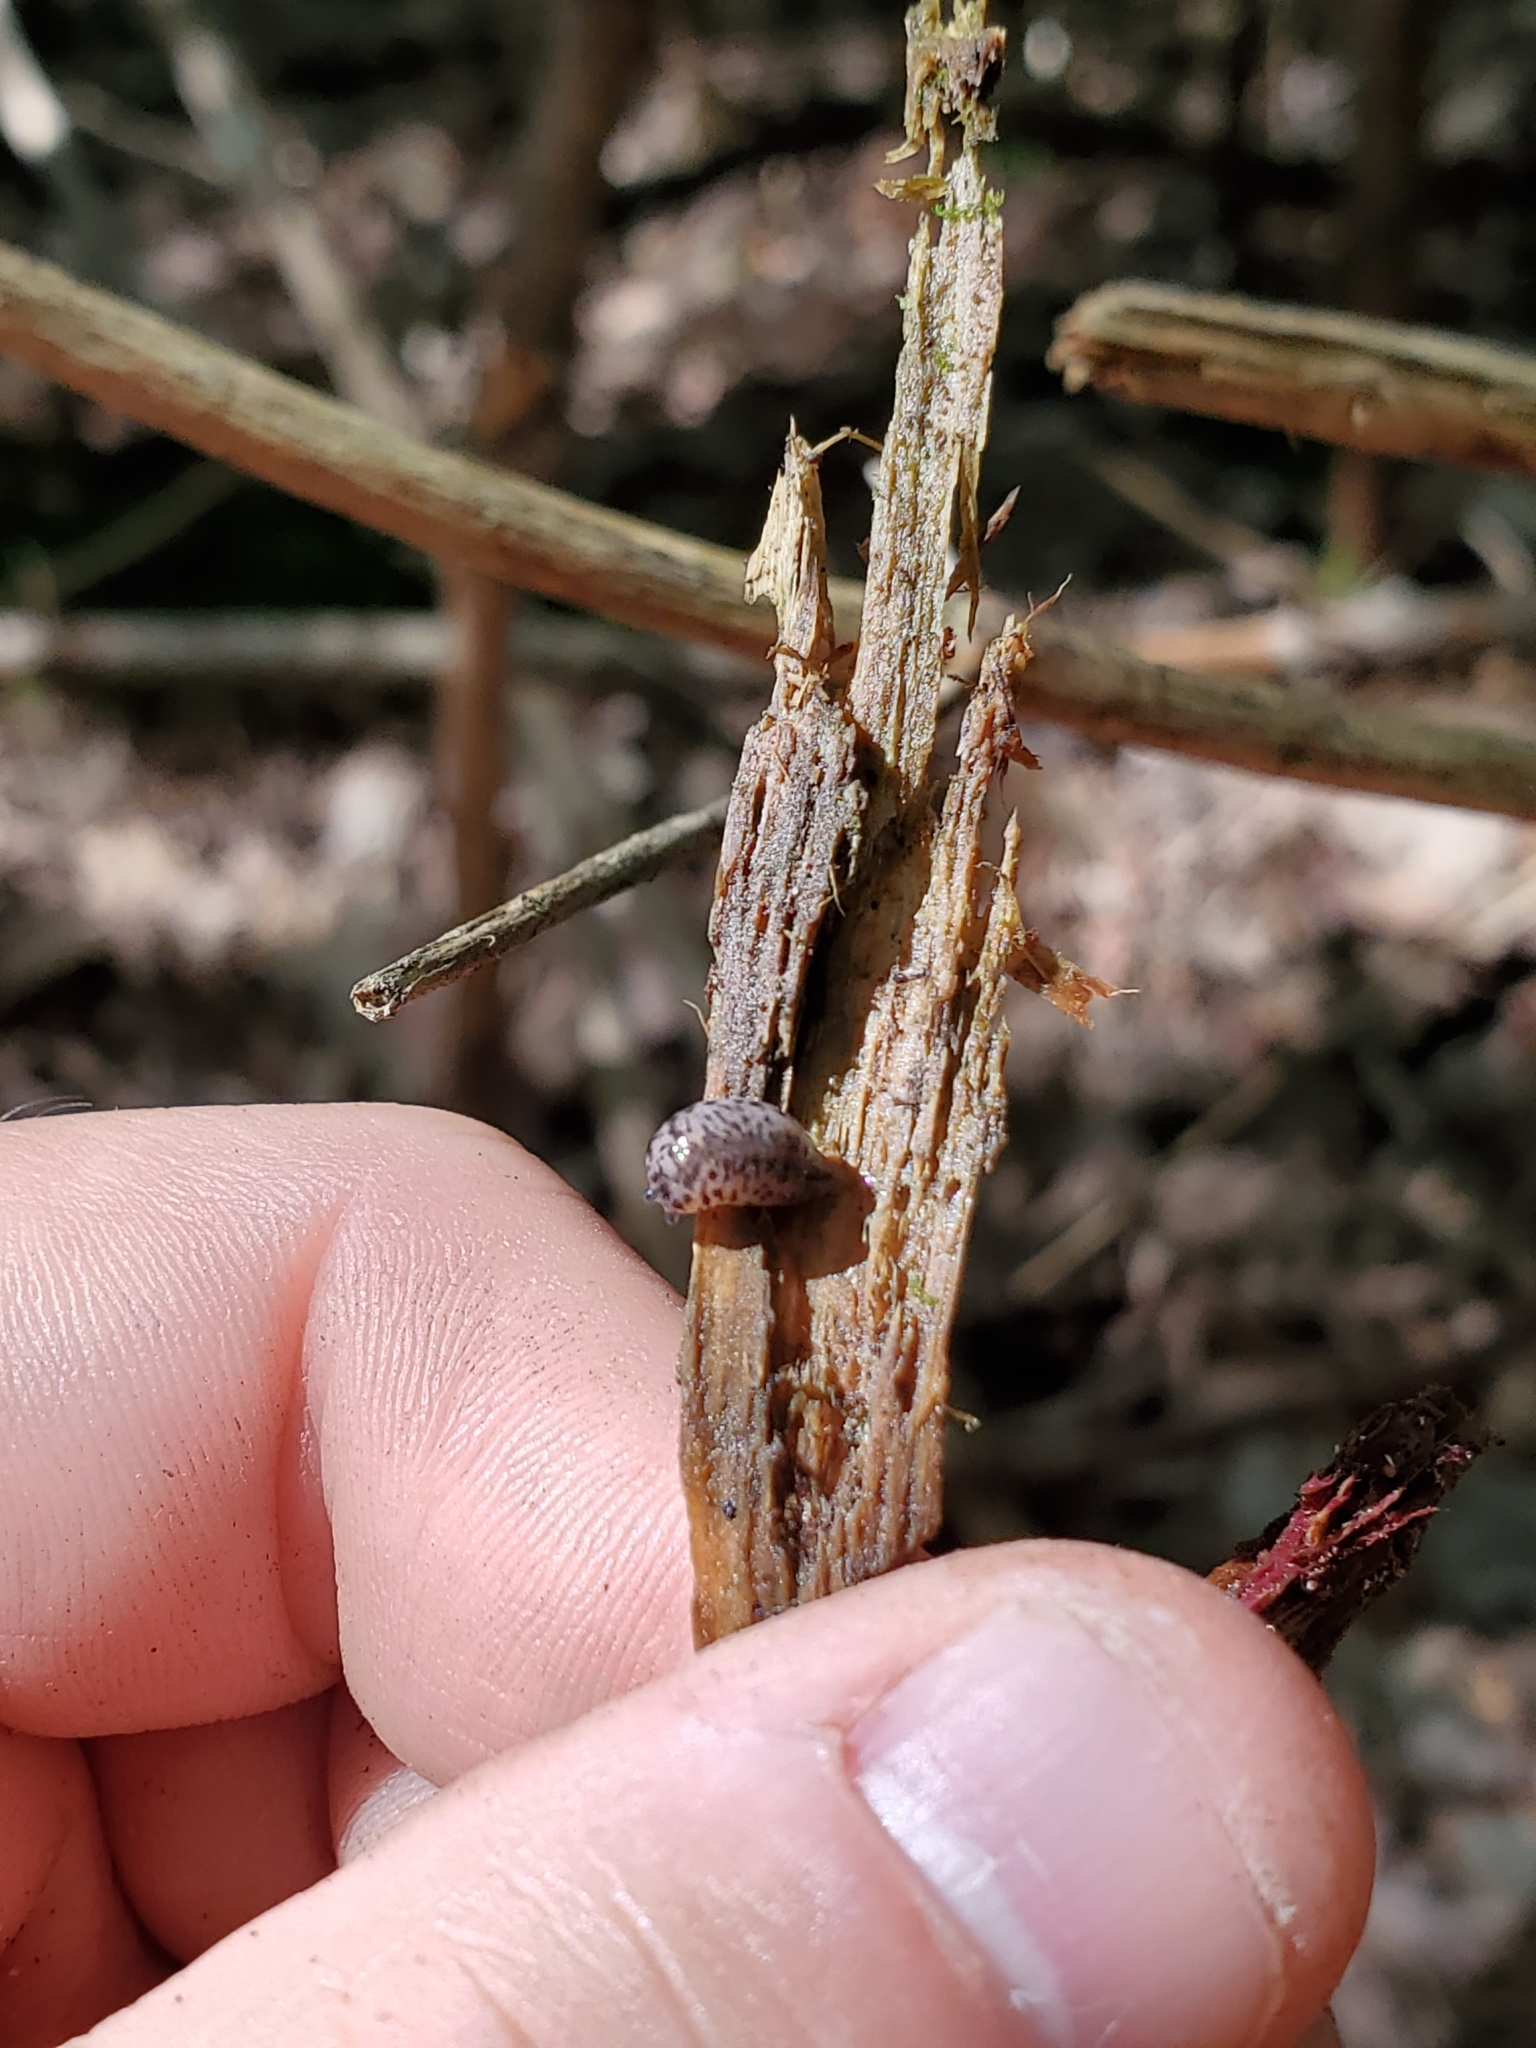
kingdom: Animalia
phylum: Mollusca
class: Gastropoda
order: Stylommatophora
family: Philomycidae
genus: Philomycus
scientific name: Philomycus flexuolaris
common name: Winding mantleslug
